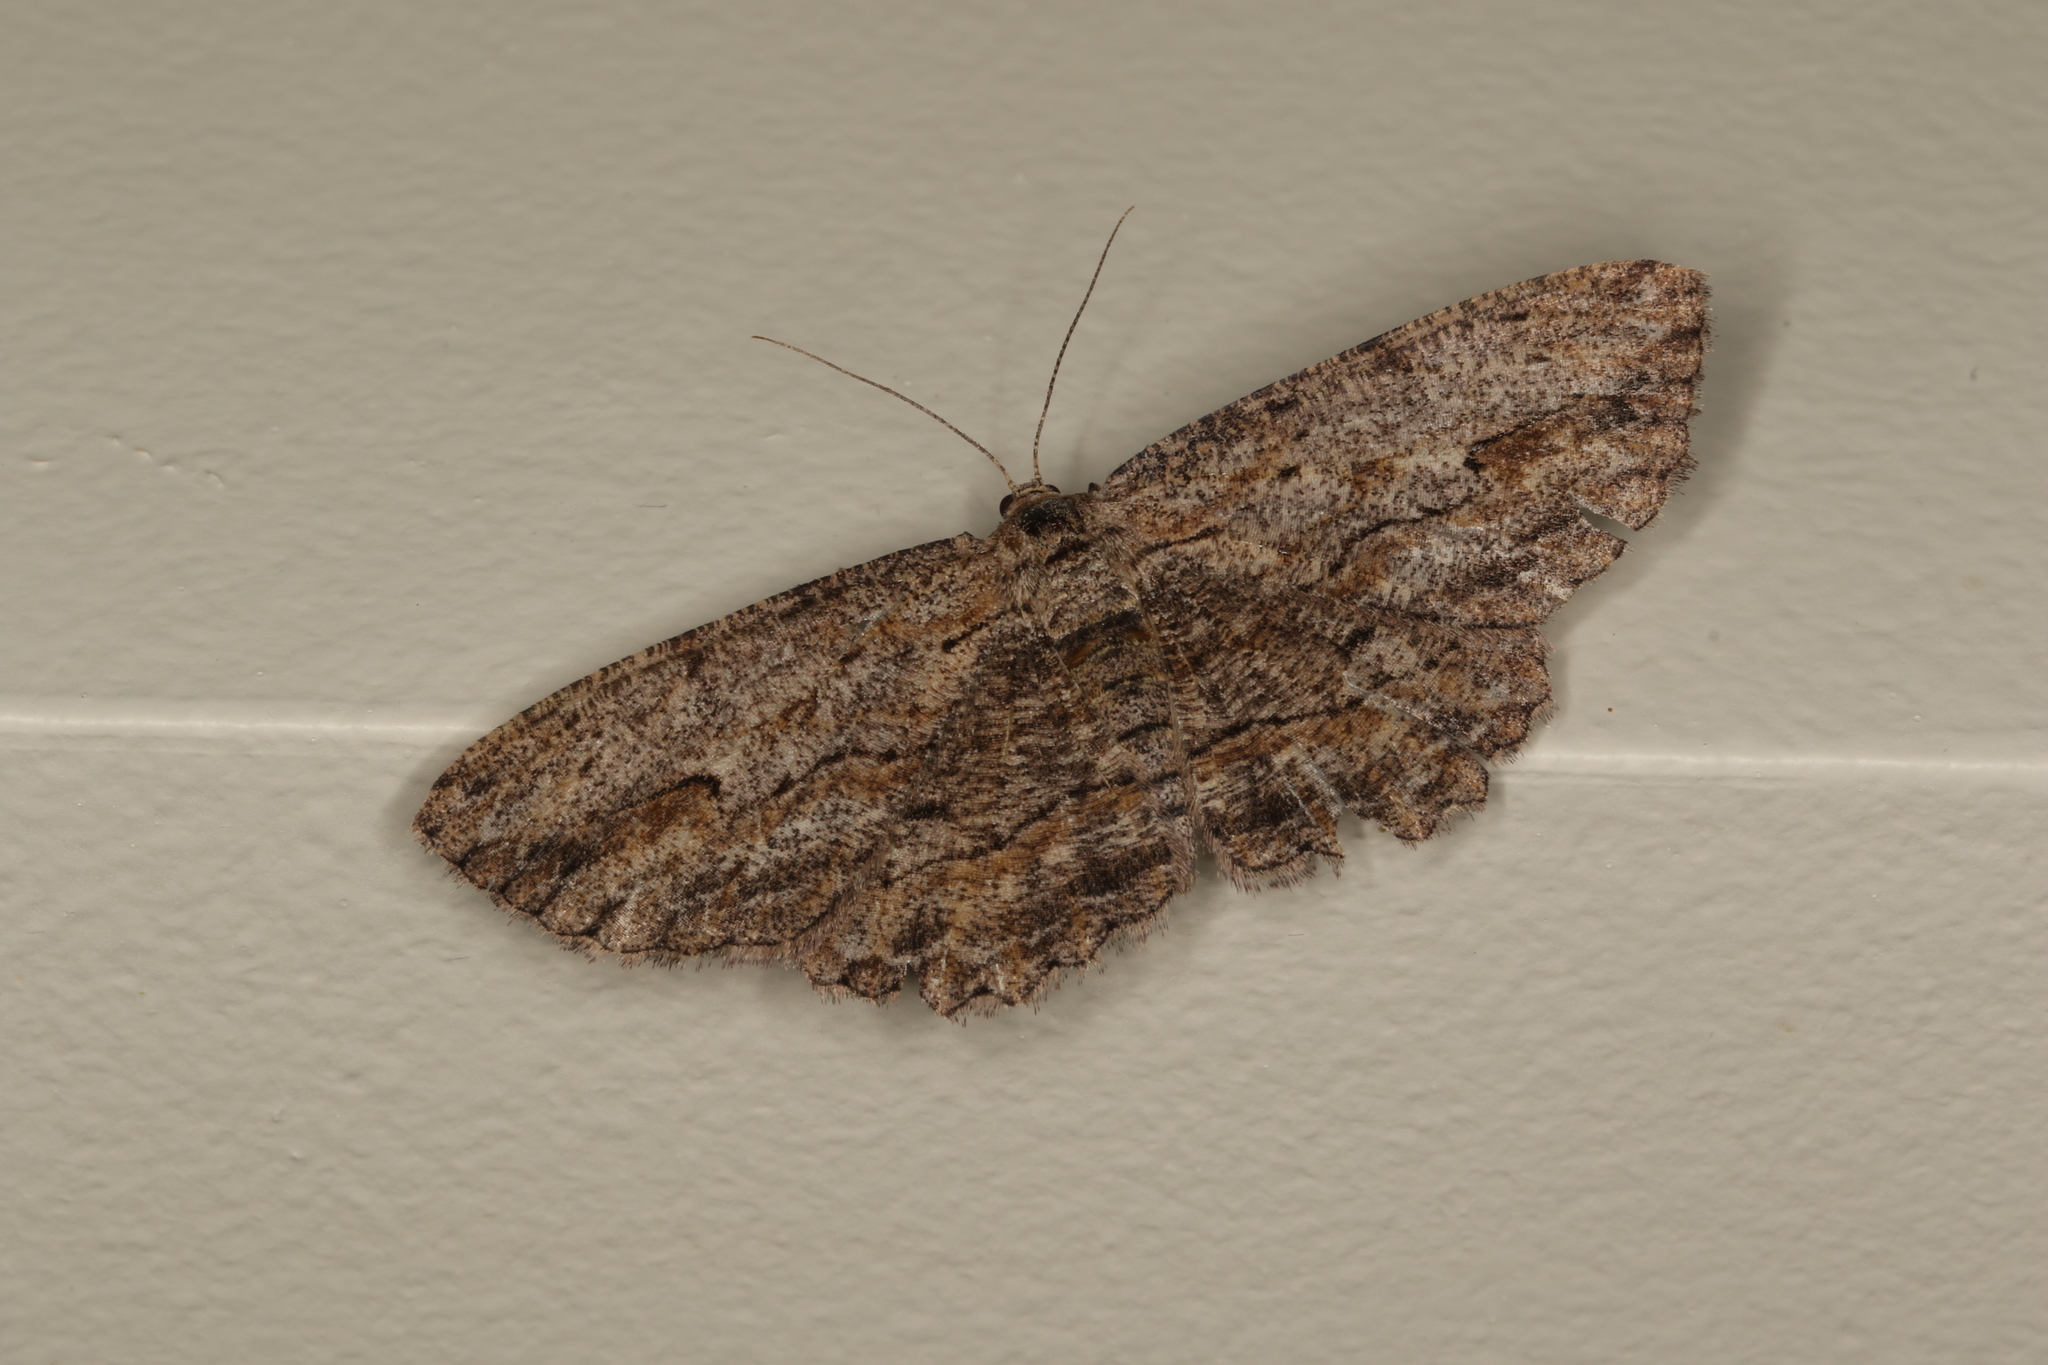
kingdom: Animalia
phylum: Arthropoda
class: Insecta
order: Lepidoptera
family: Geometridae
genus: Ectropis
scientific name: Ectropis excursaria
